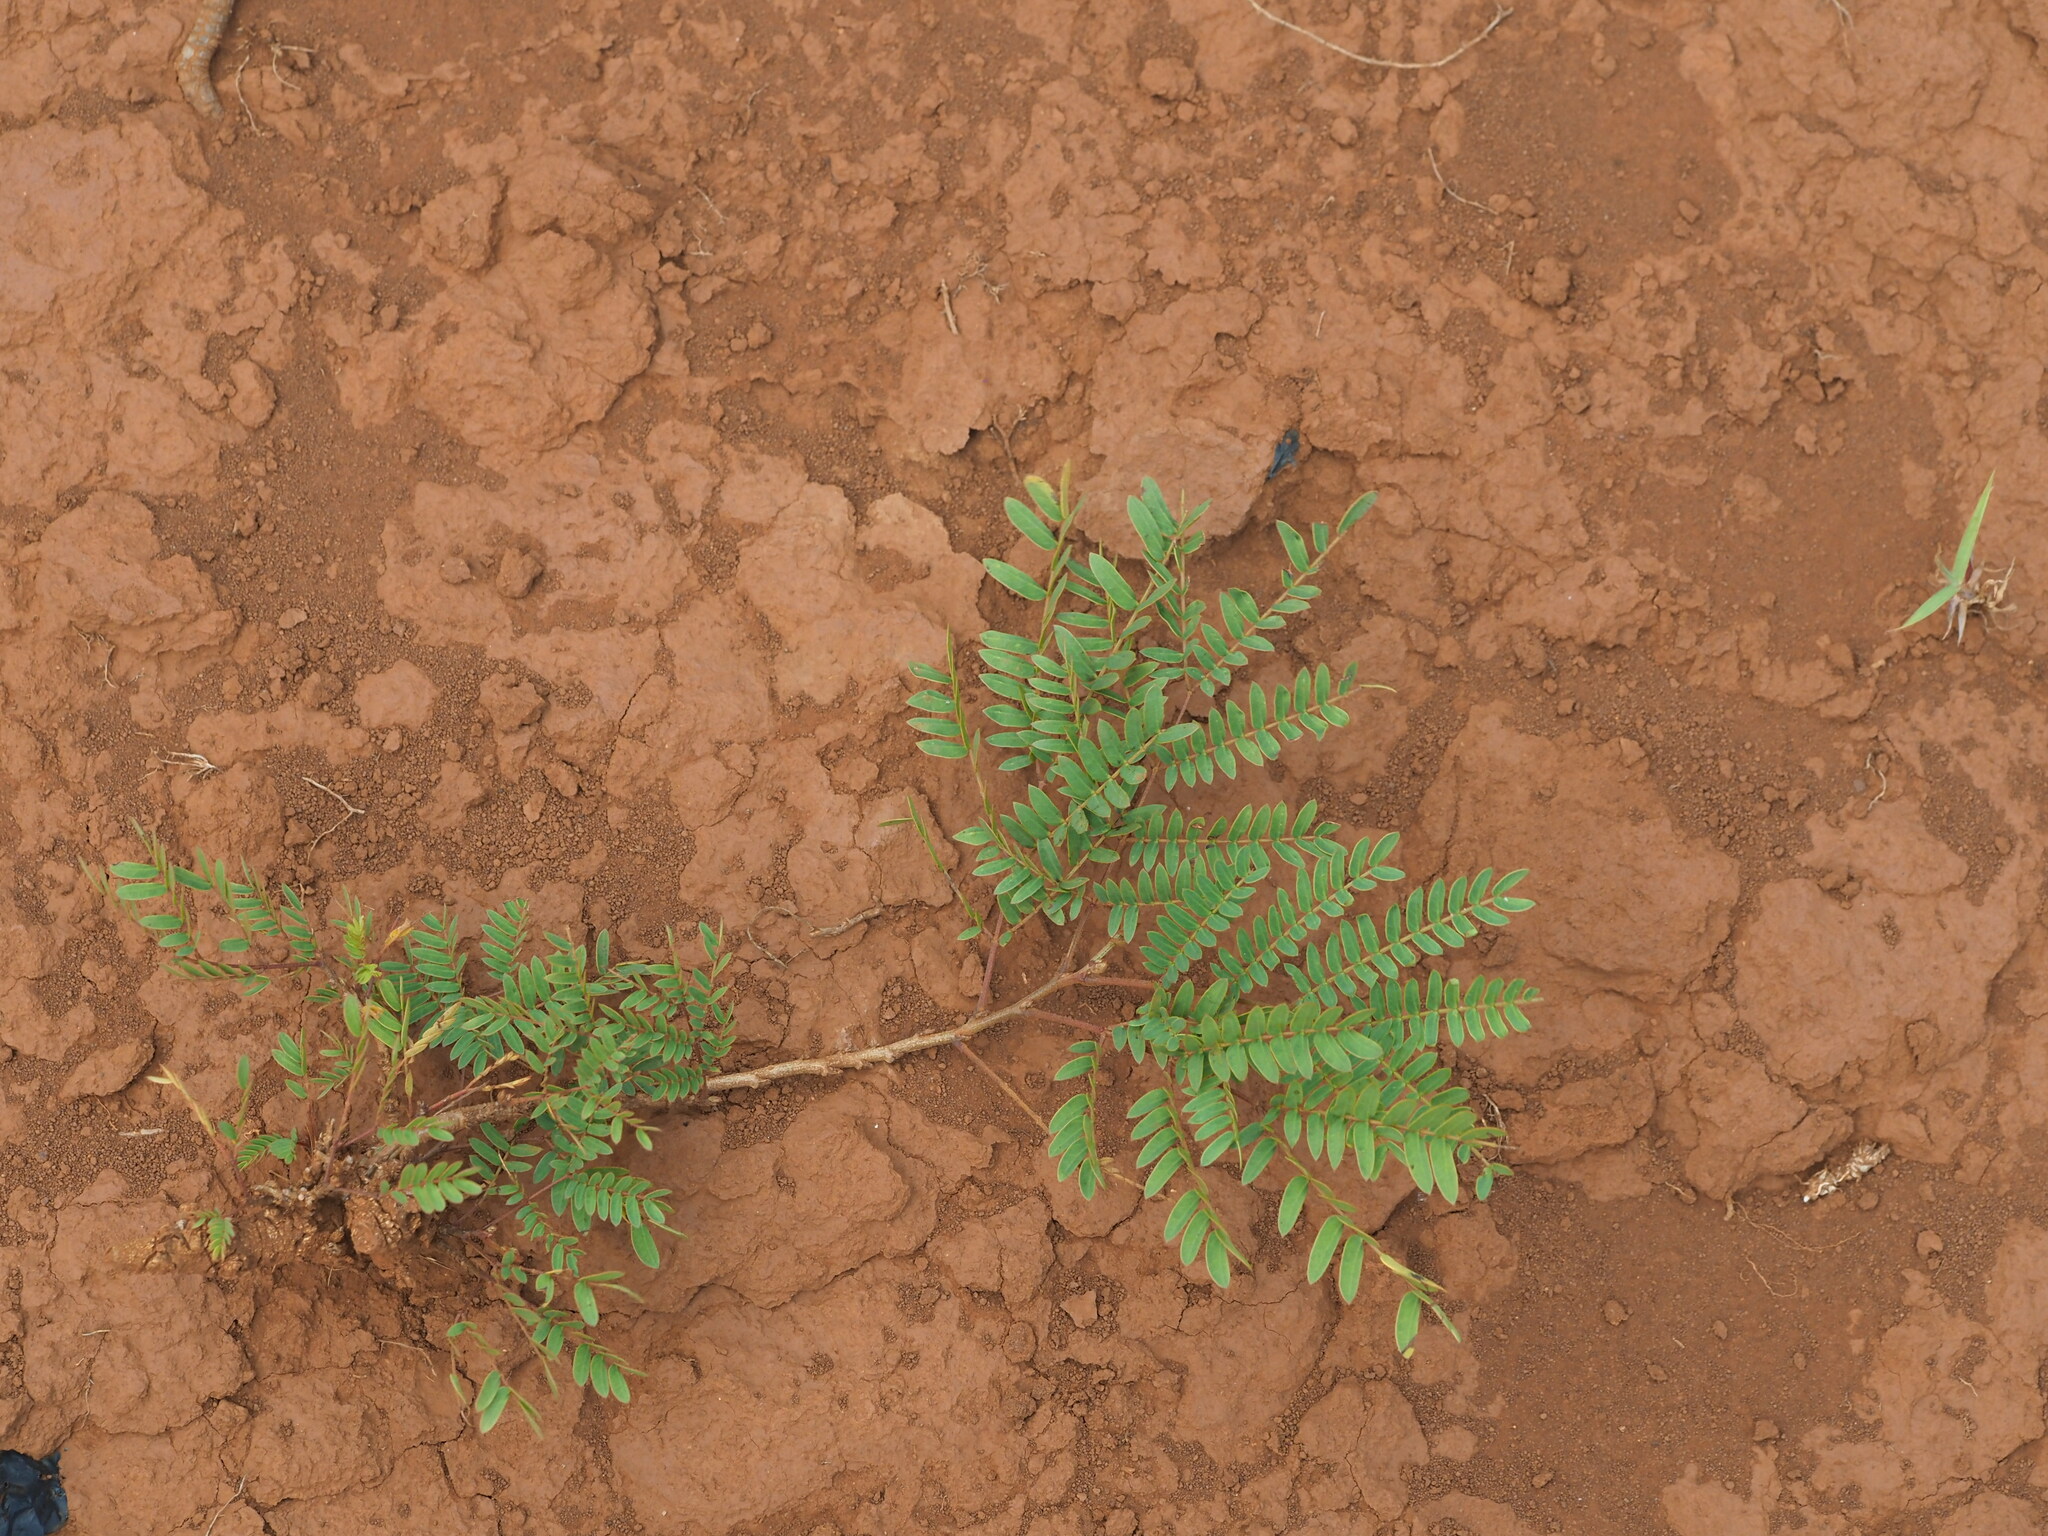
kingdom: Plantae
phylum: Tracheophyta
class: Magnoliopsida
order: Fabales
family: Fabaceae
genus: Leucaena
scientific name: Leucaena leucocephala
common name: White leadtree
